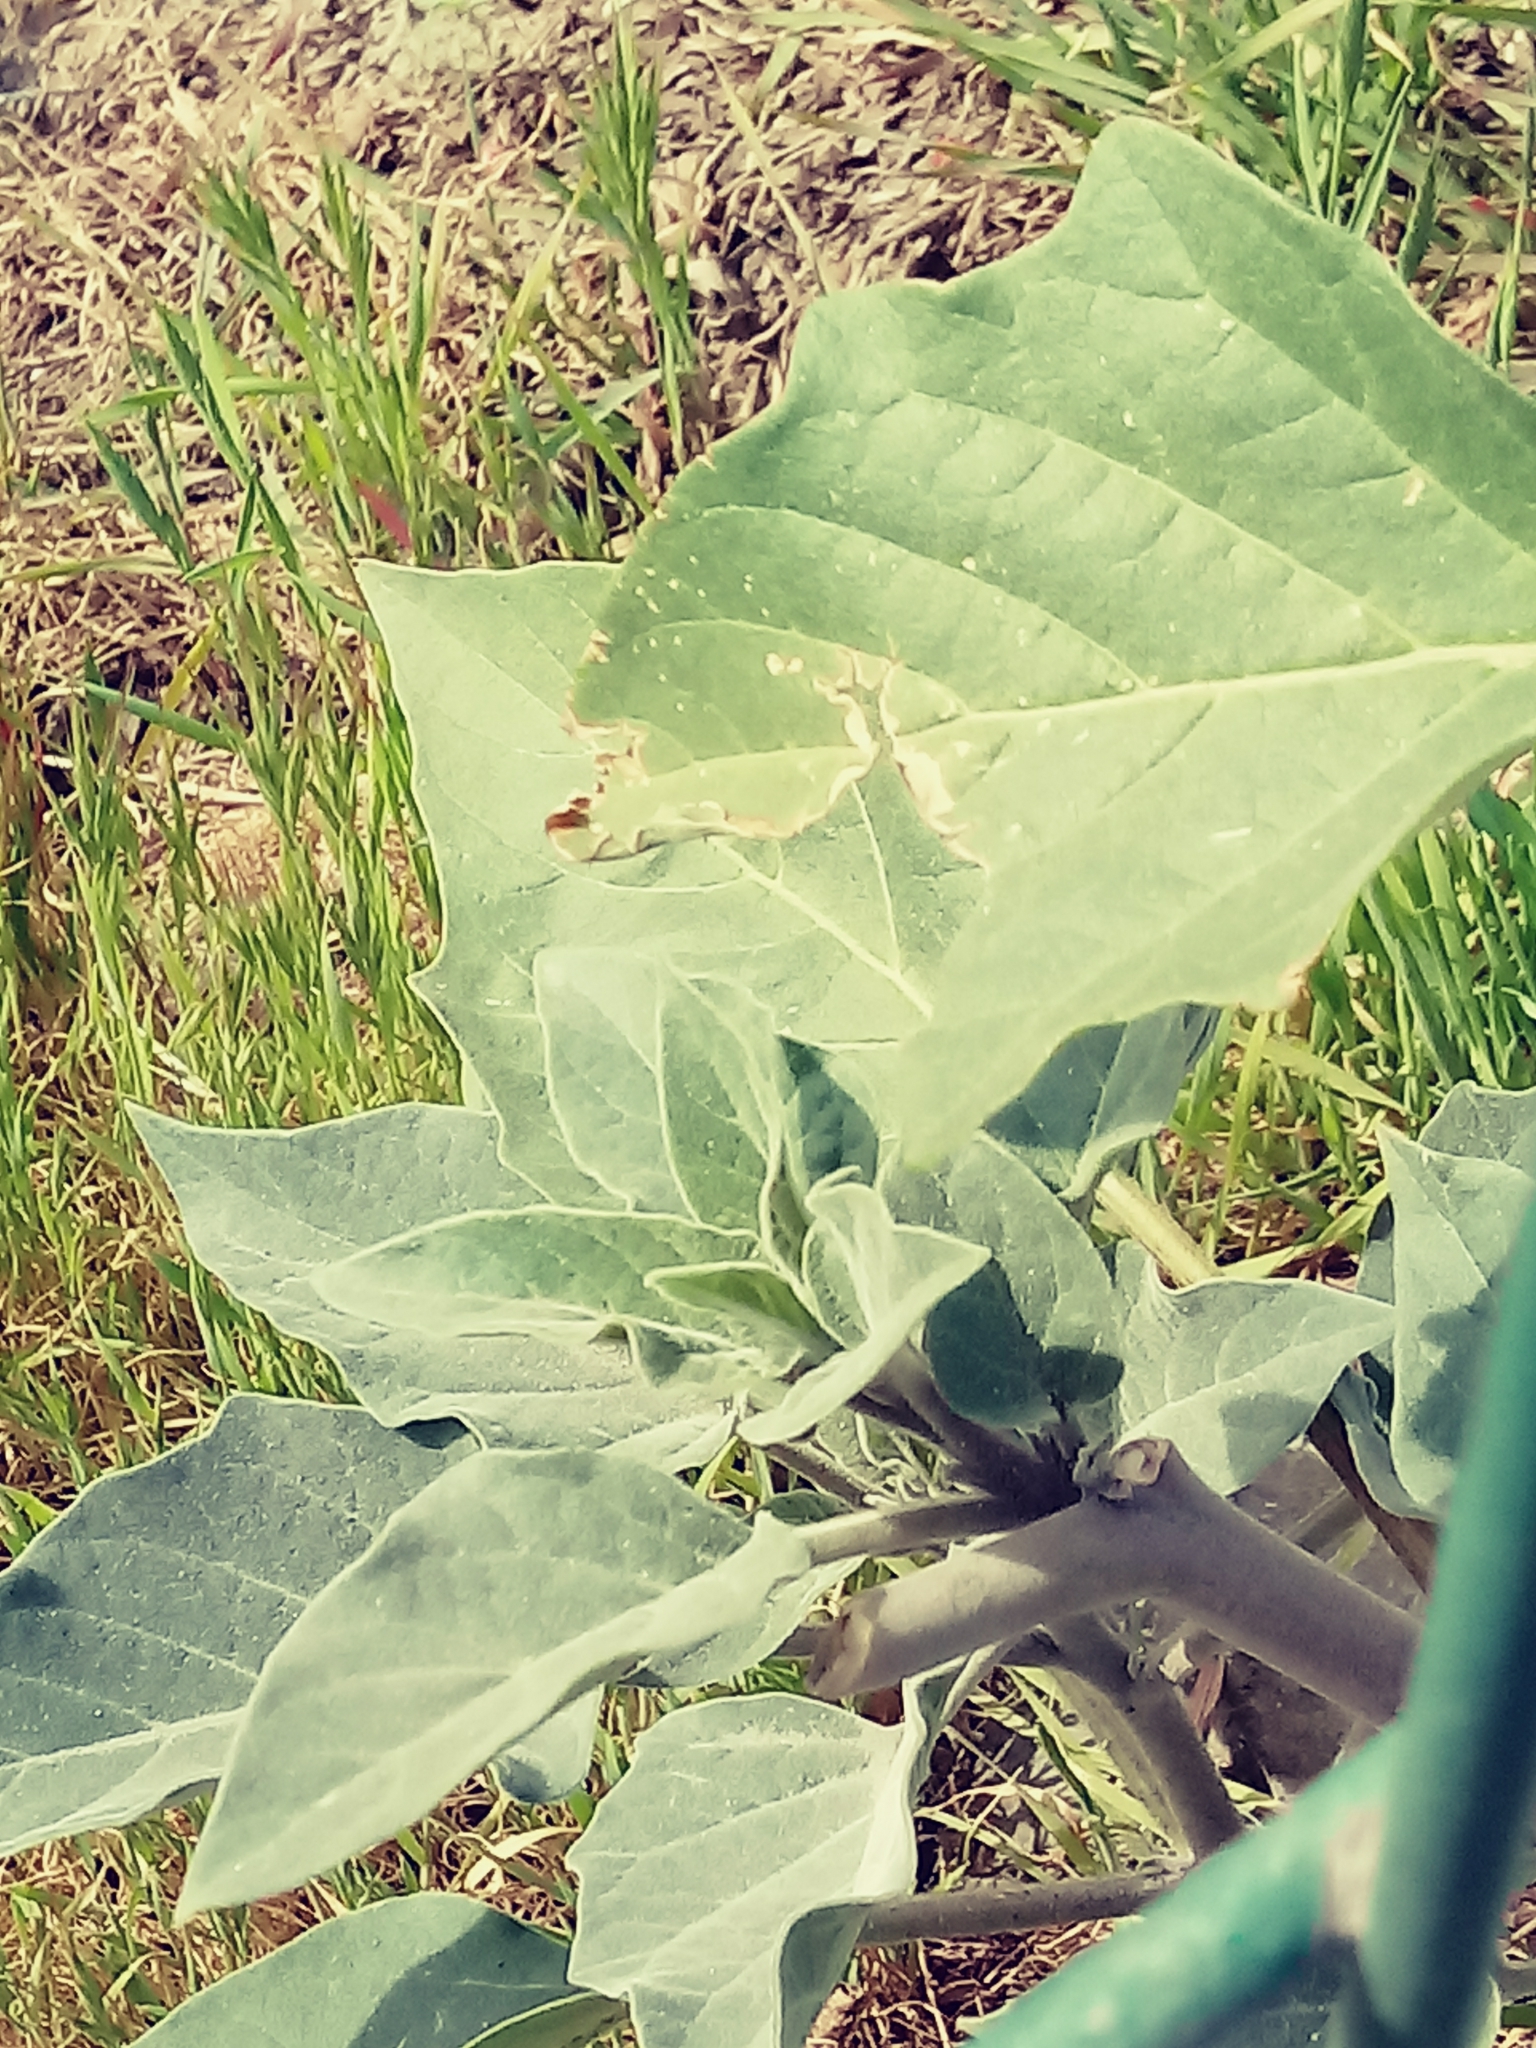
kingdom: Plantae
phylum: Tracheophyta
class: Magnoliopsida
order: Solanales
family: Solanaceae
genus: Datura
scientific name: Datura wrightii
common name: Sacred thorn-apple
